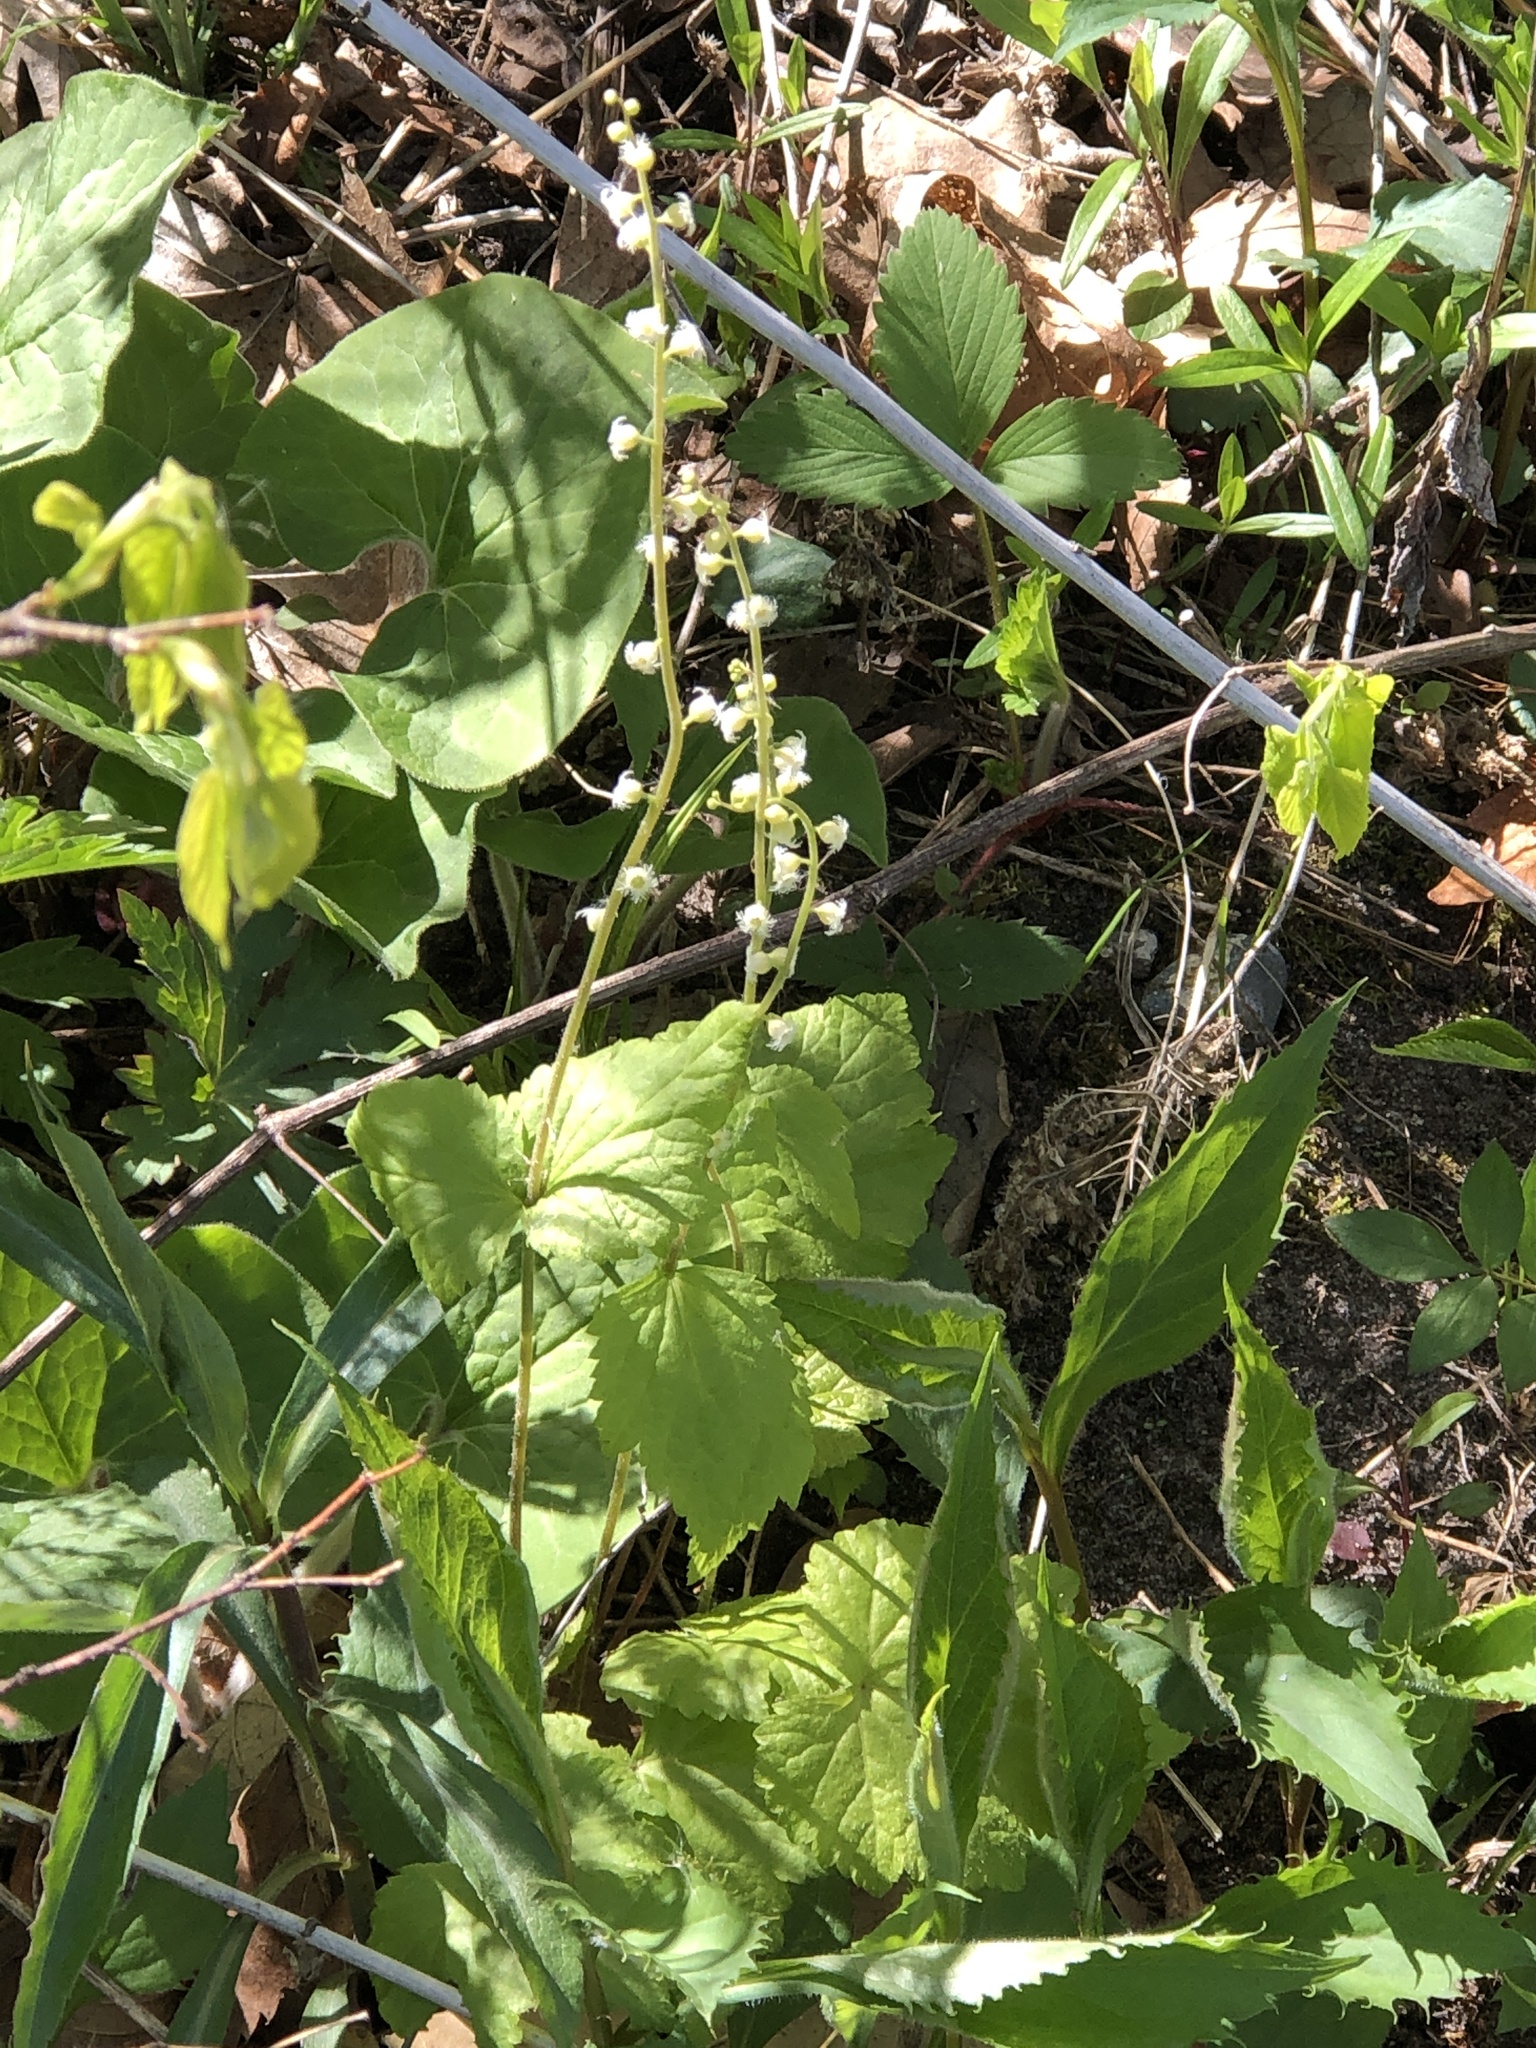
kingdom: Plantae
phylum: Tracheophyta
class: Magnoliopsida
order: Saxifragales
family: Saxifragaceae
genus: Mitella
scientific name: Mitella diphylla
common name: Coolwort
